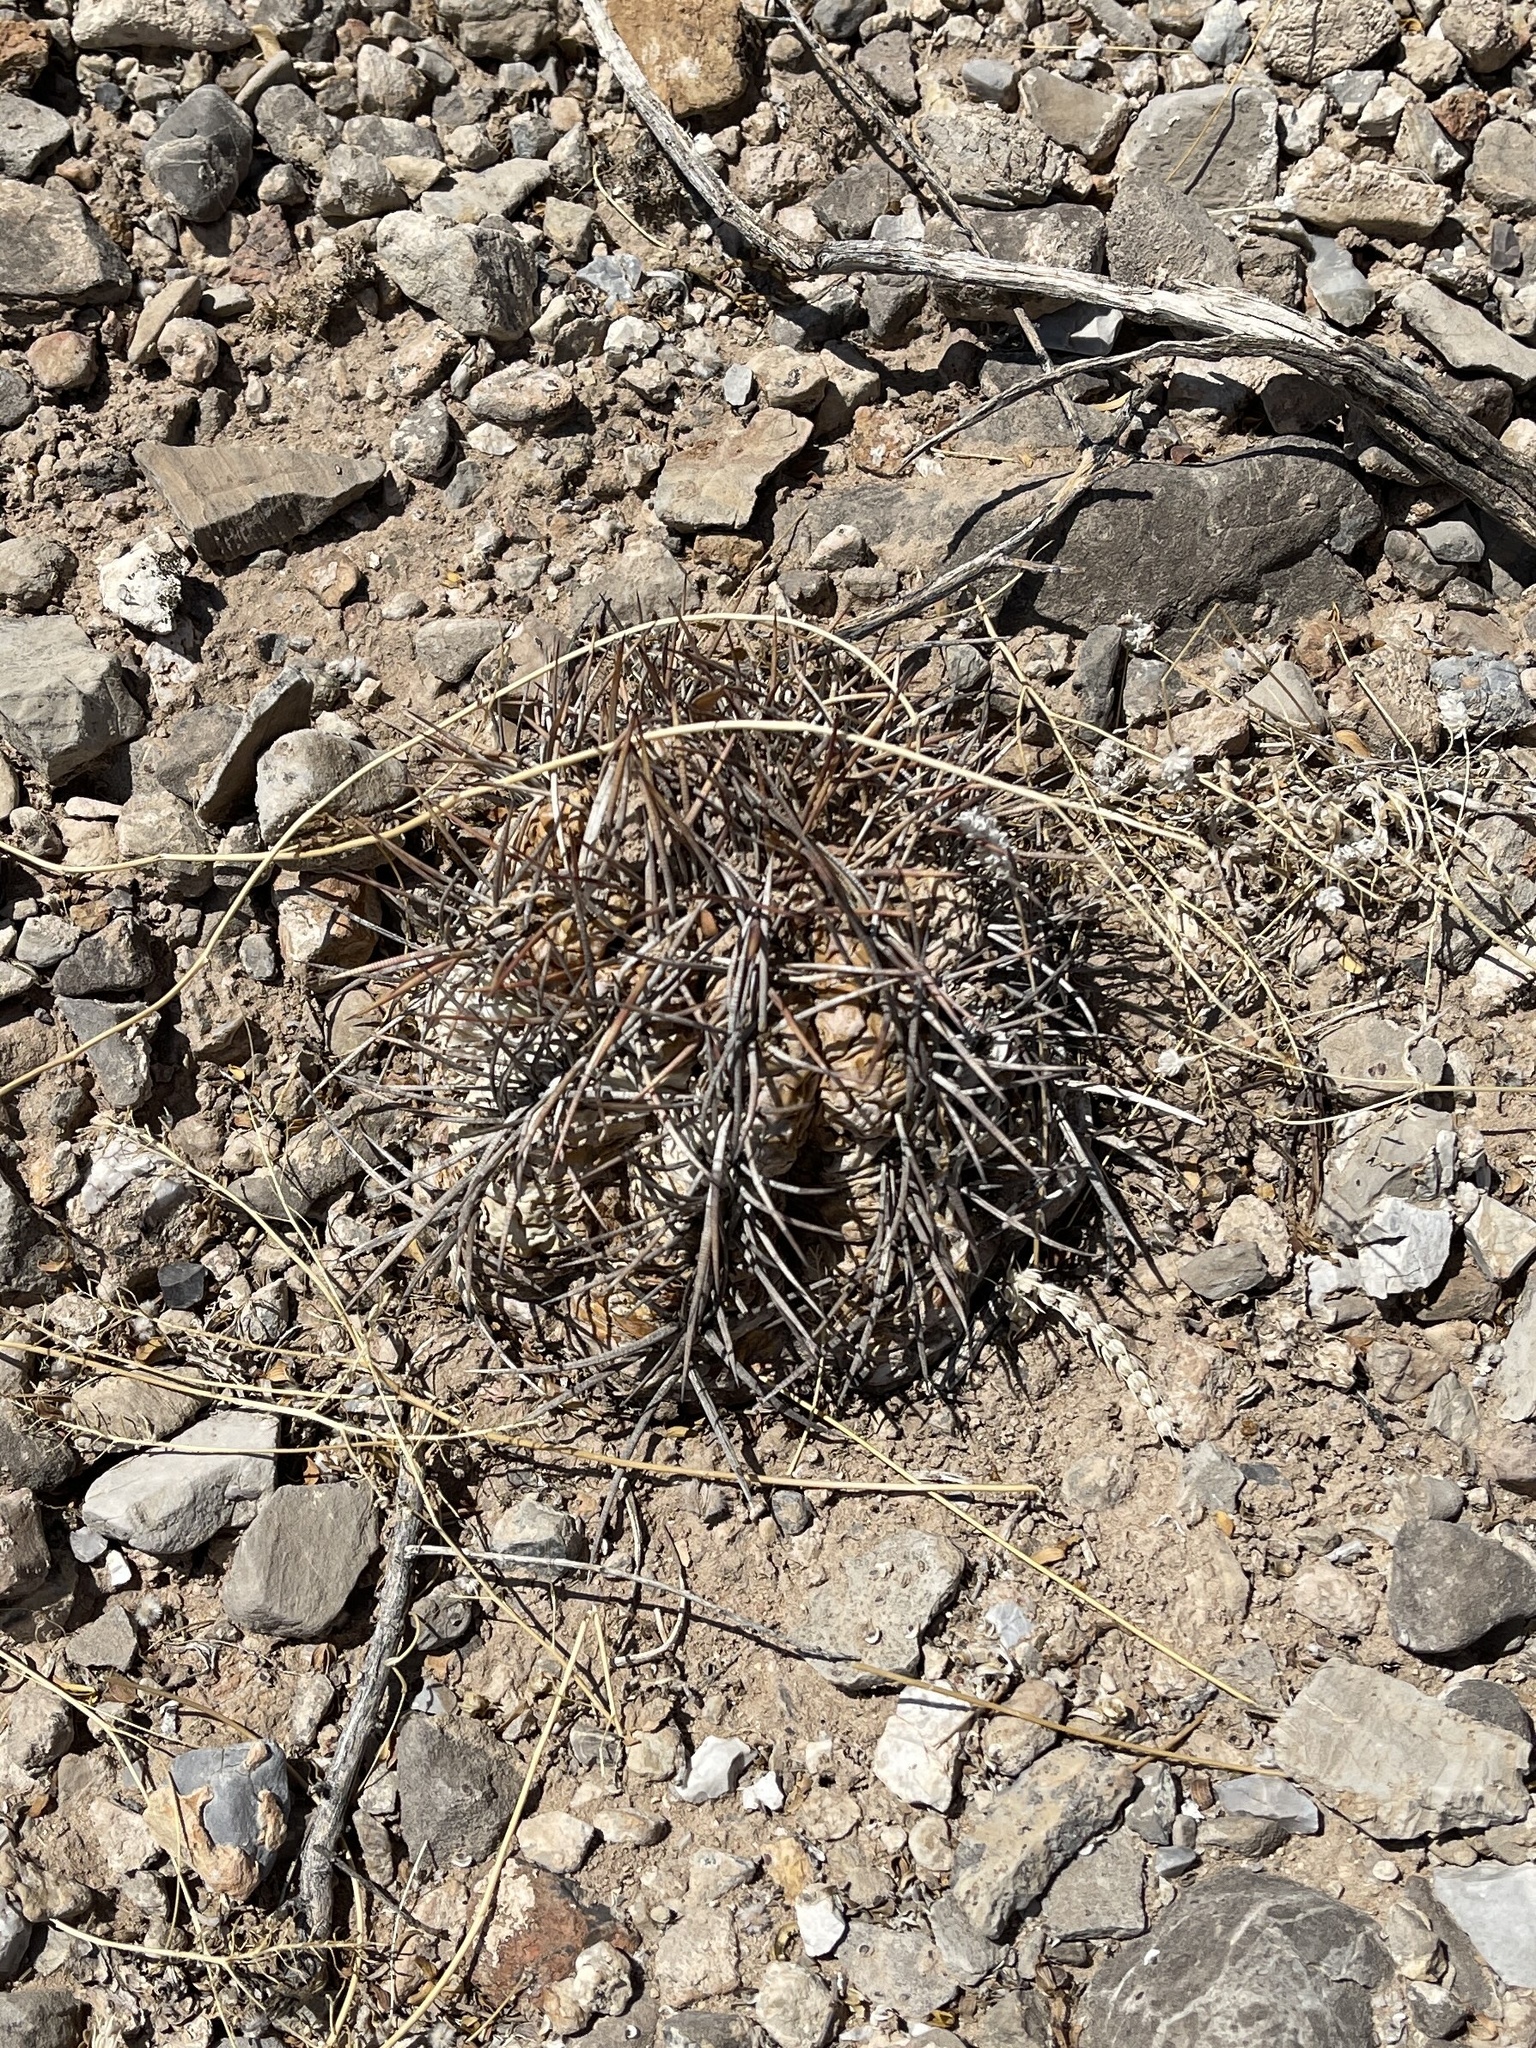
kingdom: Plantae
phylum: Tracheophyta
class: Magnoliopsida
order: Caryophyllales
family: Cactaceae
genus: Echinocactus
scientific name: Echinocactus horizonthalonius
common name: Devilshead
